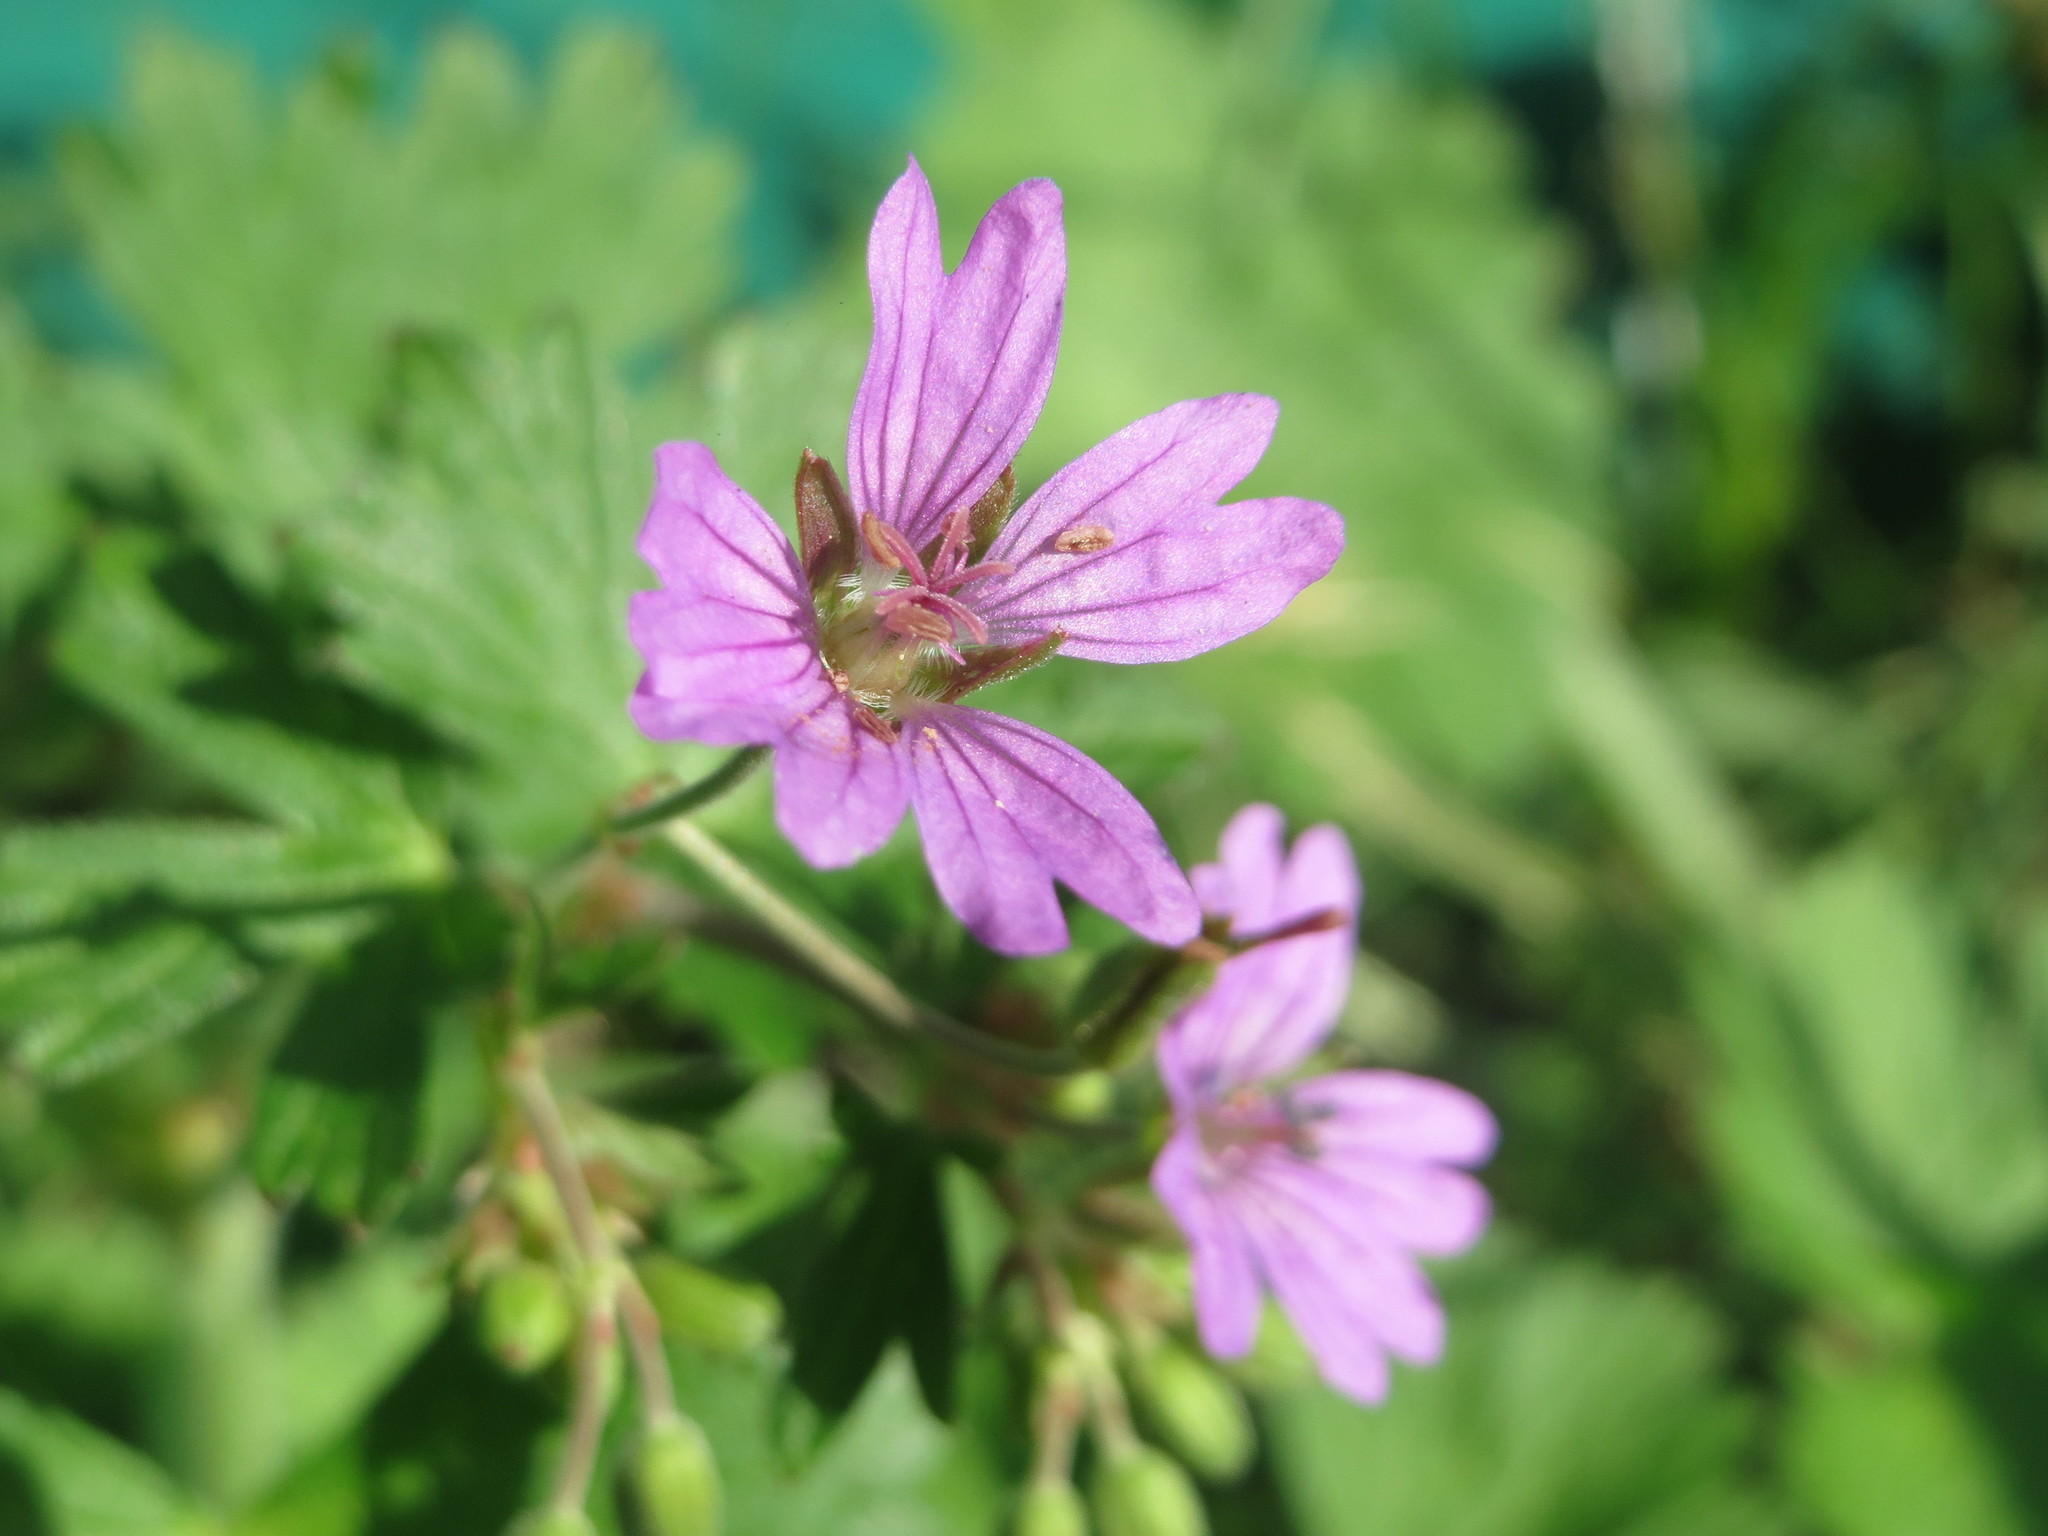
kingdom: Plantae
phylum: Tracheophyta
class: Magnoliopsida
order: Geraniales
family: Geraniaceae
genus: Geranium
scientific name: Geranium pyrenaicum
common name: Hedgerow crane's-bill
